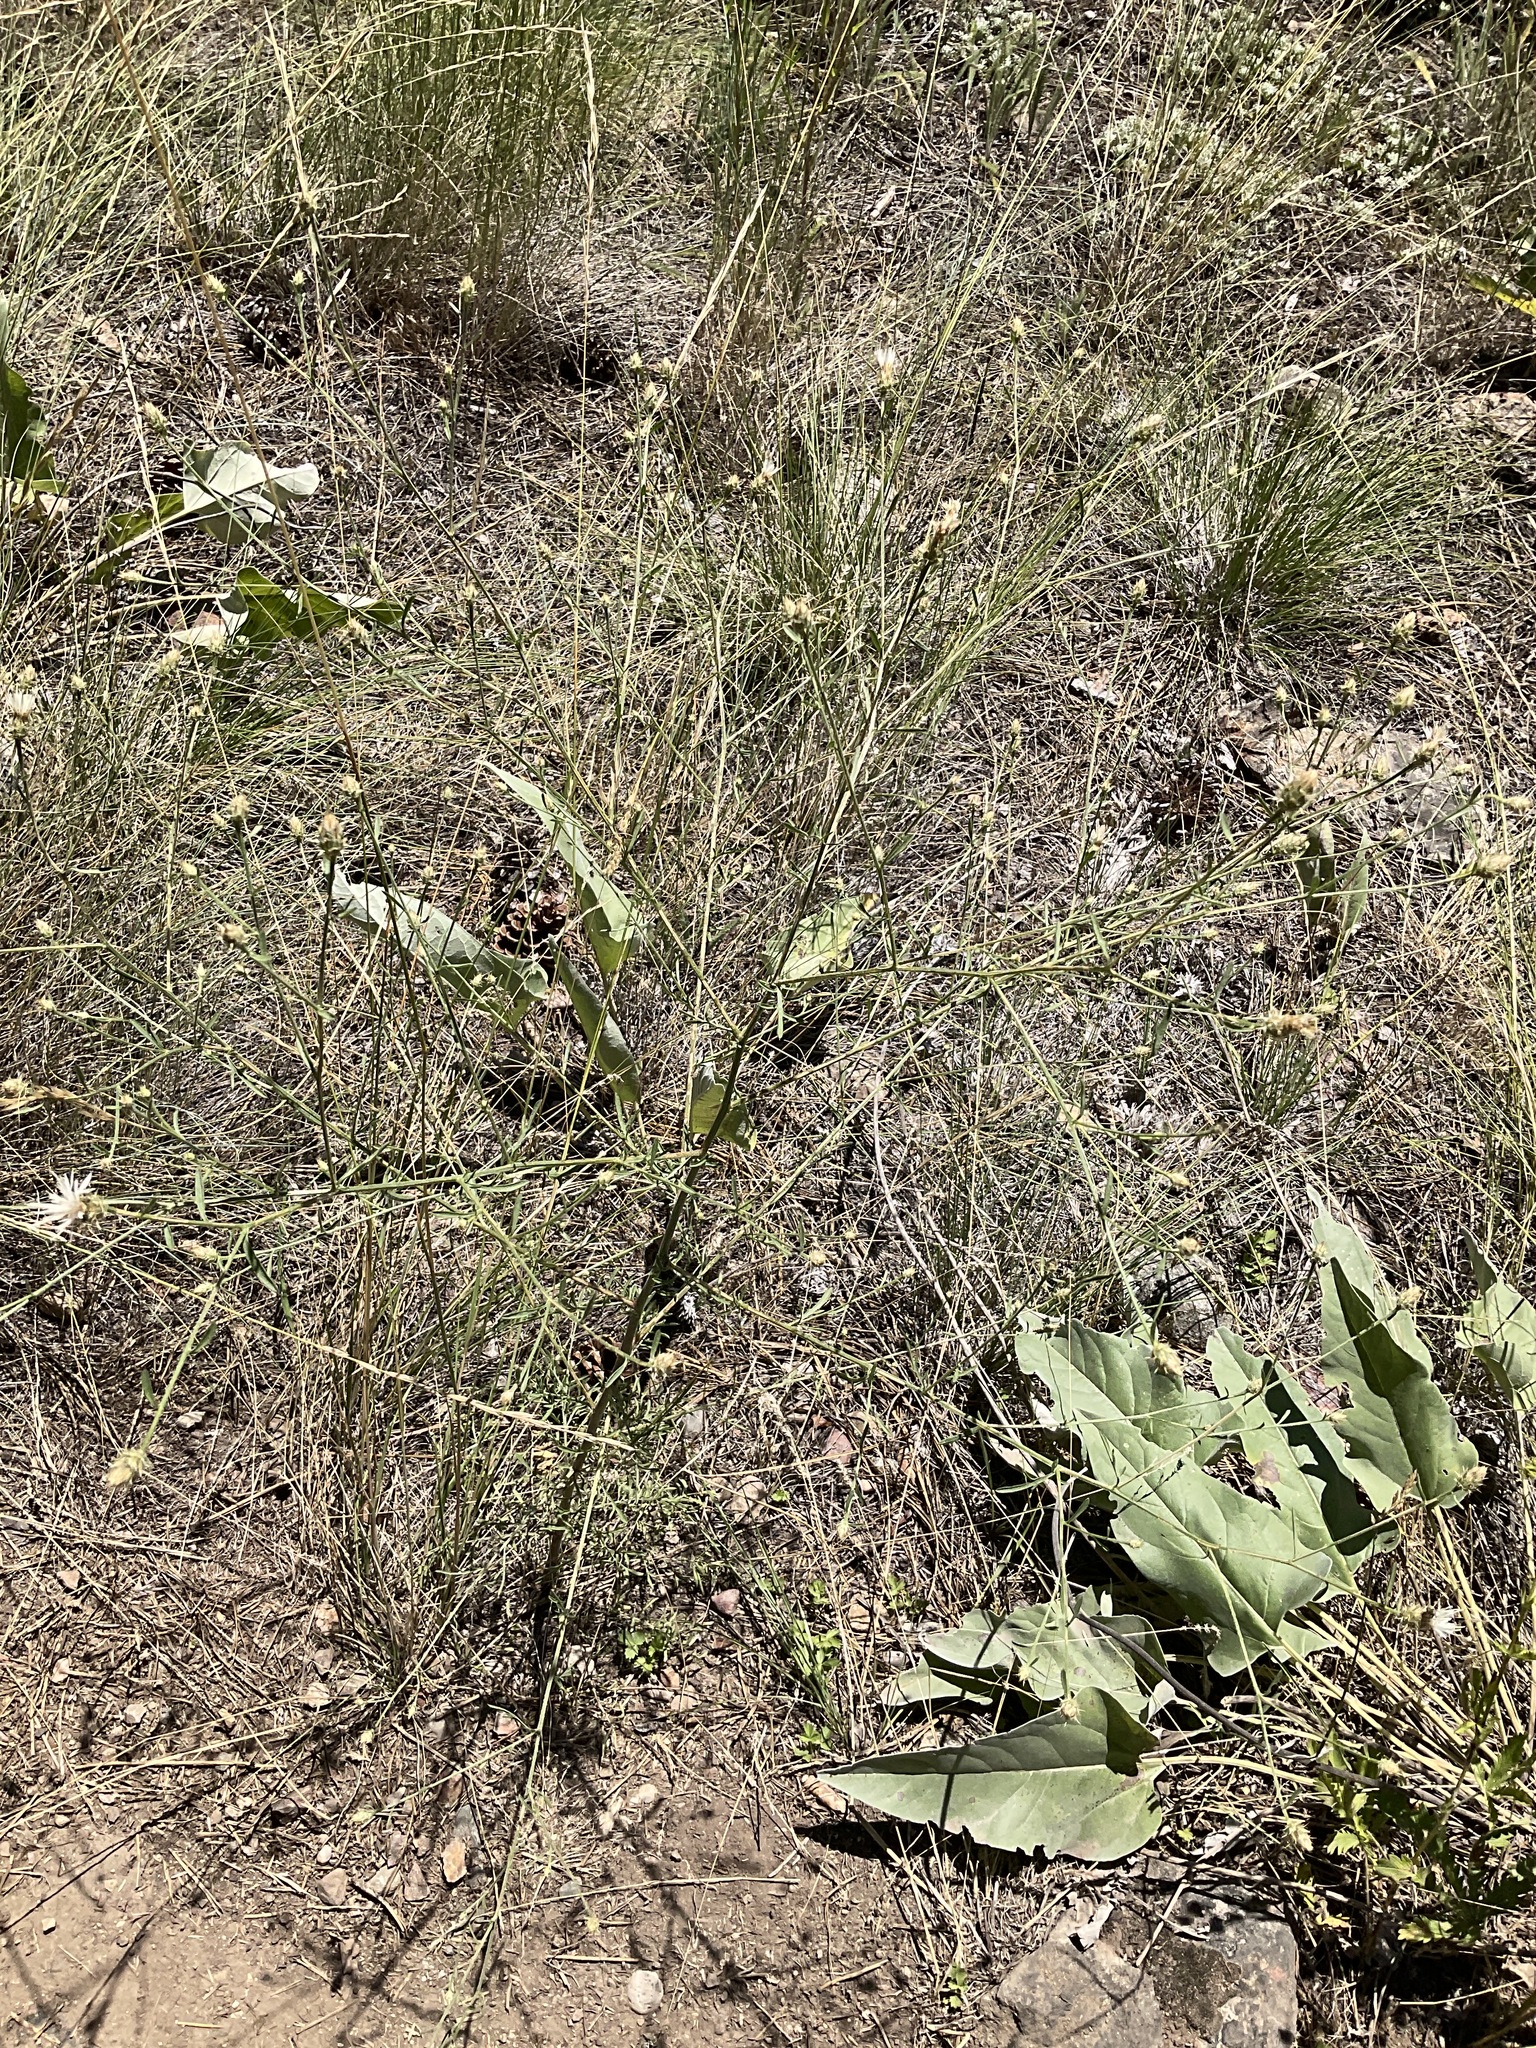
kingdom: Plantae
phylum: Tracheophyta
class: Magnoliopsida
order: Asterales
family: Asteraceae
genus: Centaurea
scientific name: Centaurea diffusa
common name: Diffuse knapweed
